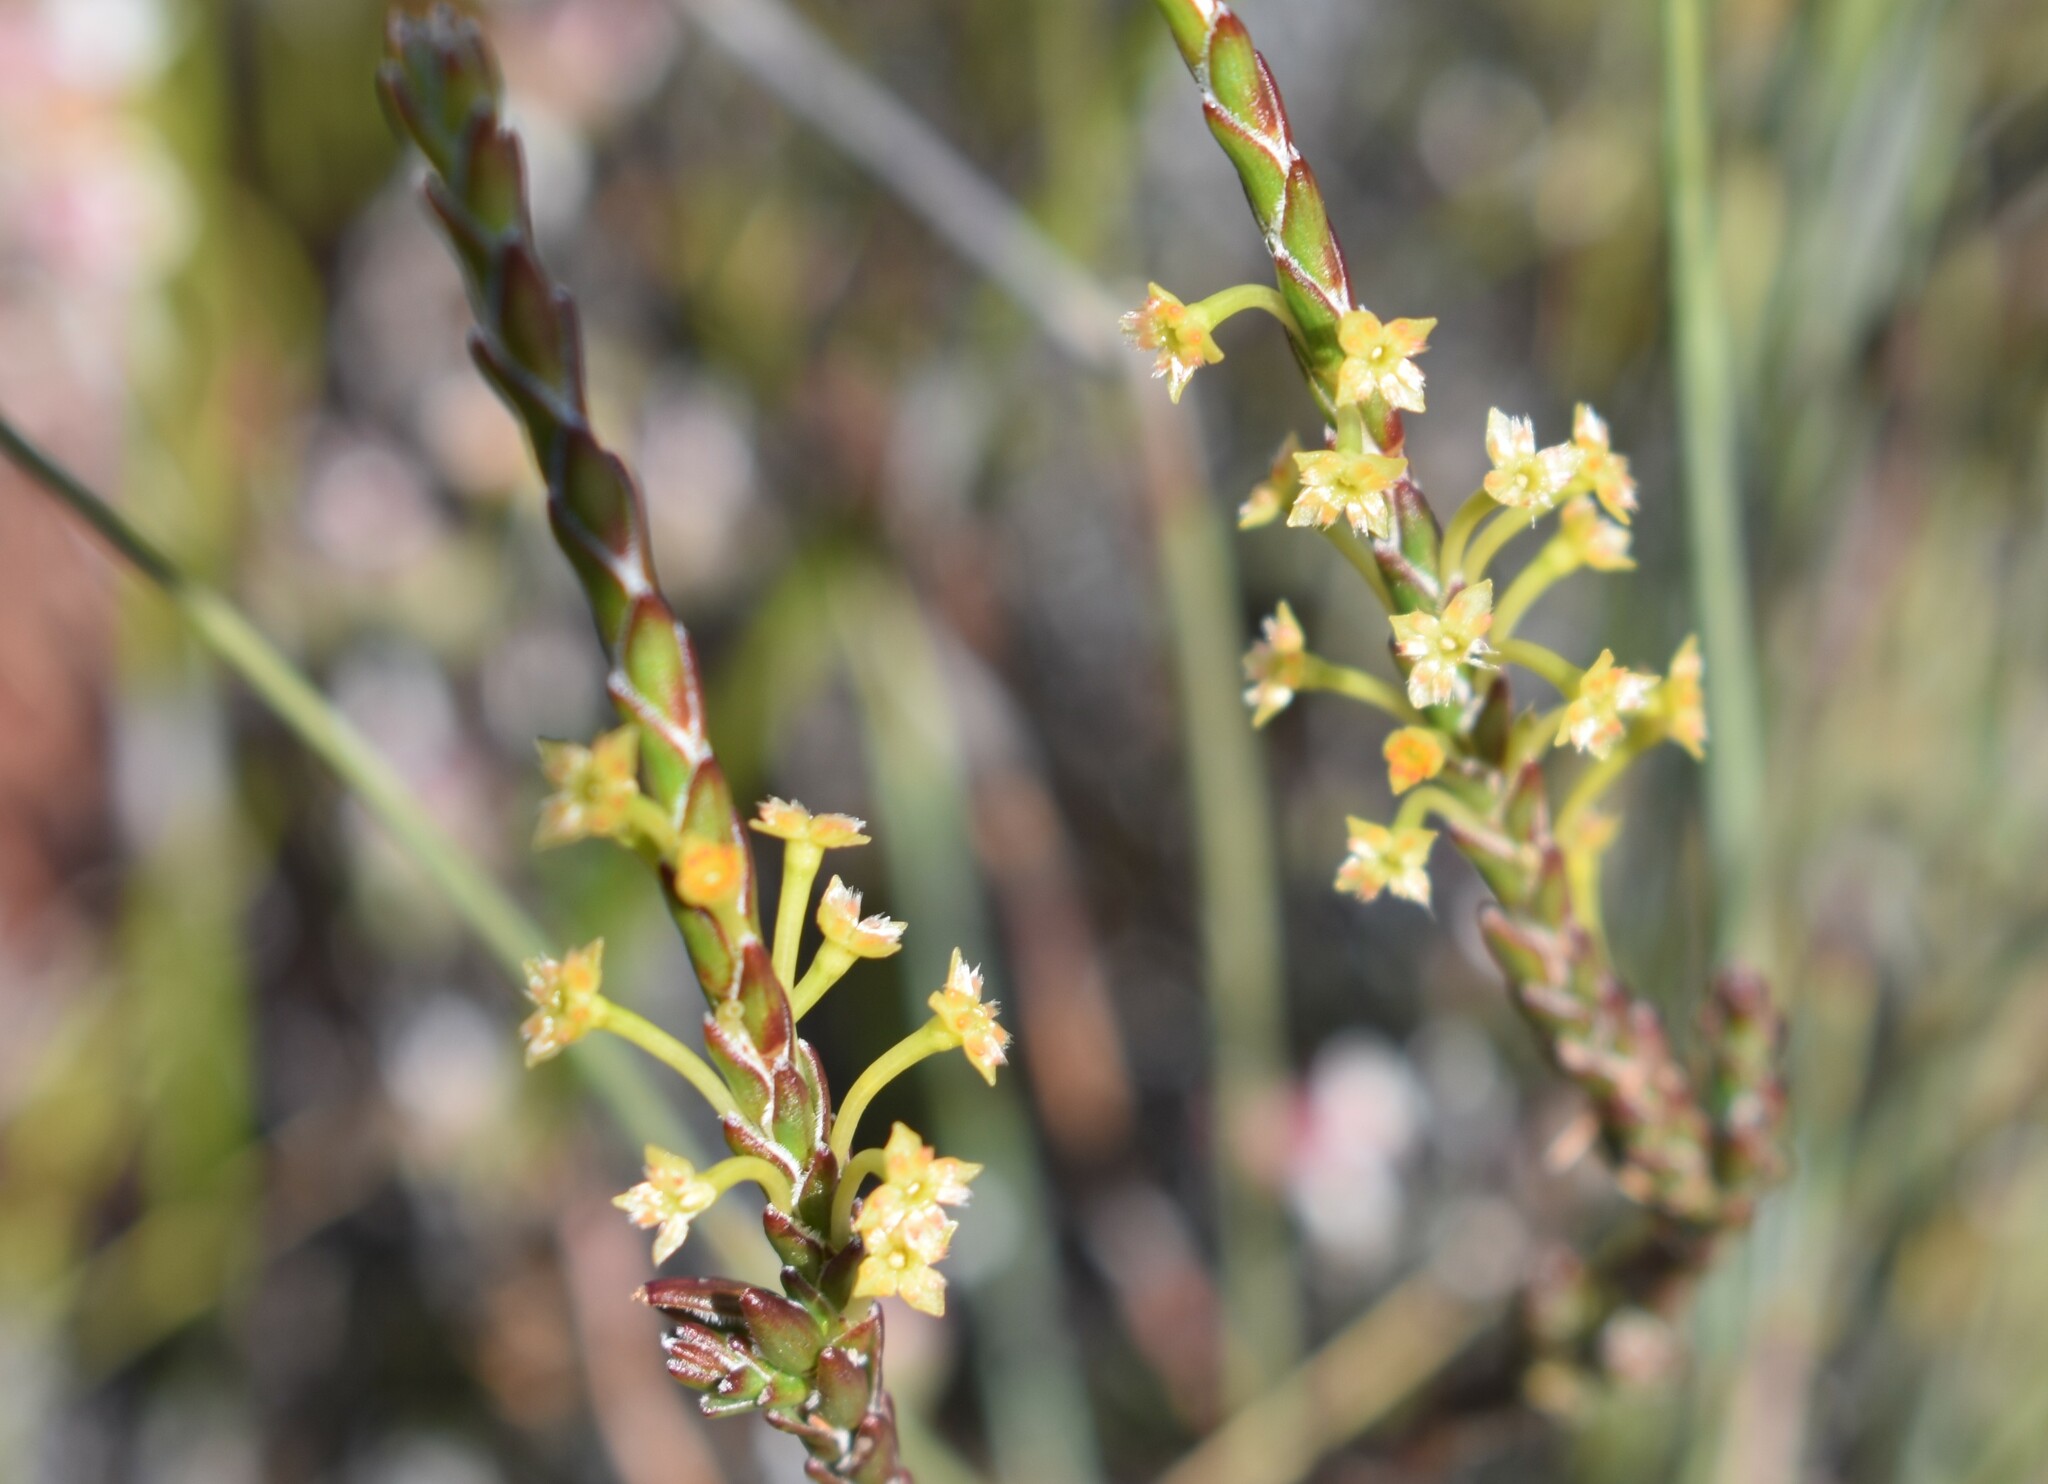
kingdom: Plantae
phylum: Tracheophyta
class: Magnoliopsida
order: Malvales
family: Thymelaeaceae
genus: Struthiola
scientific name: Struthiola parviflora
